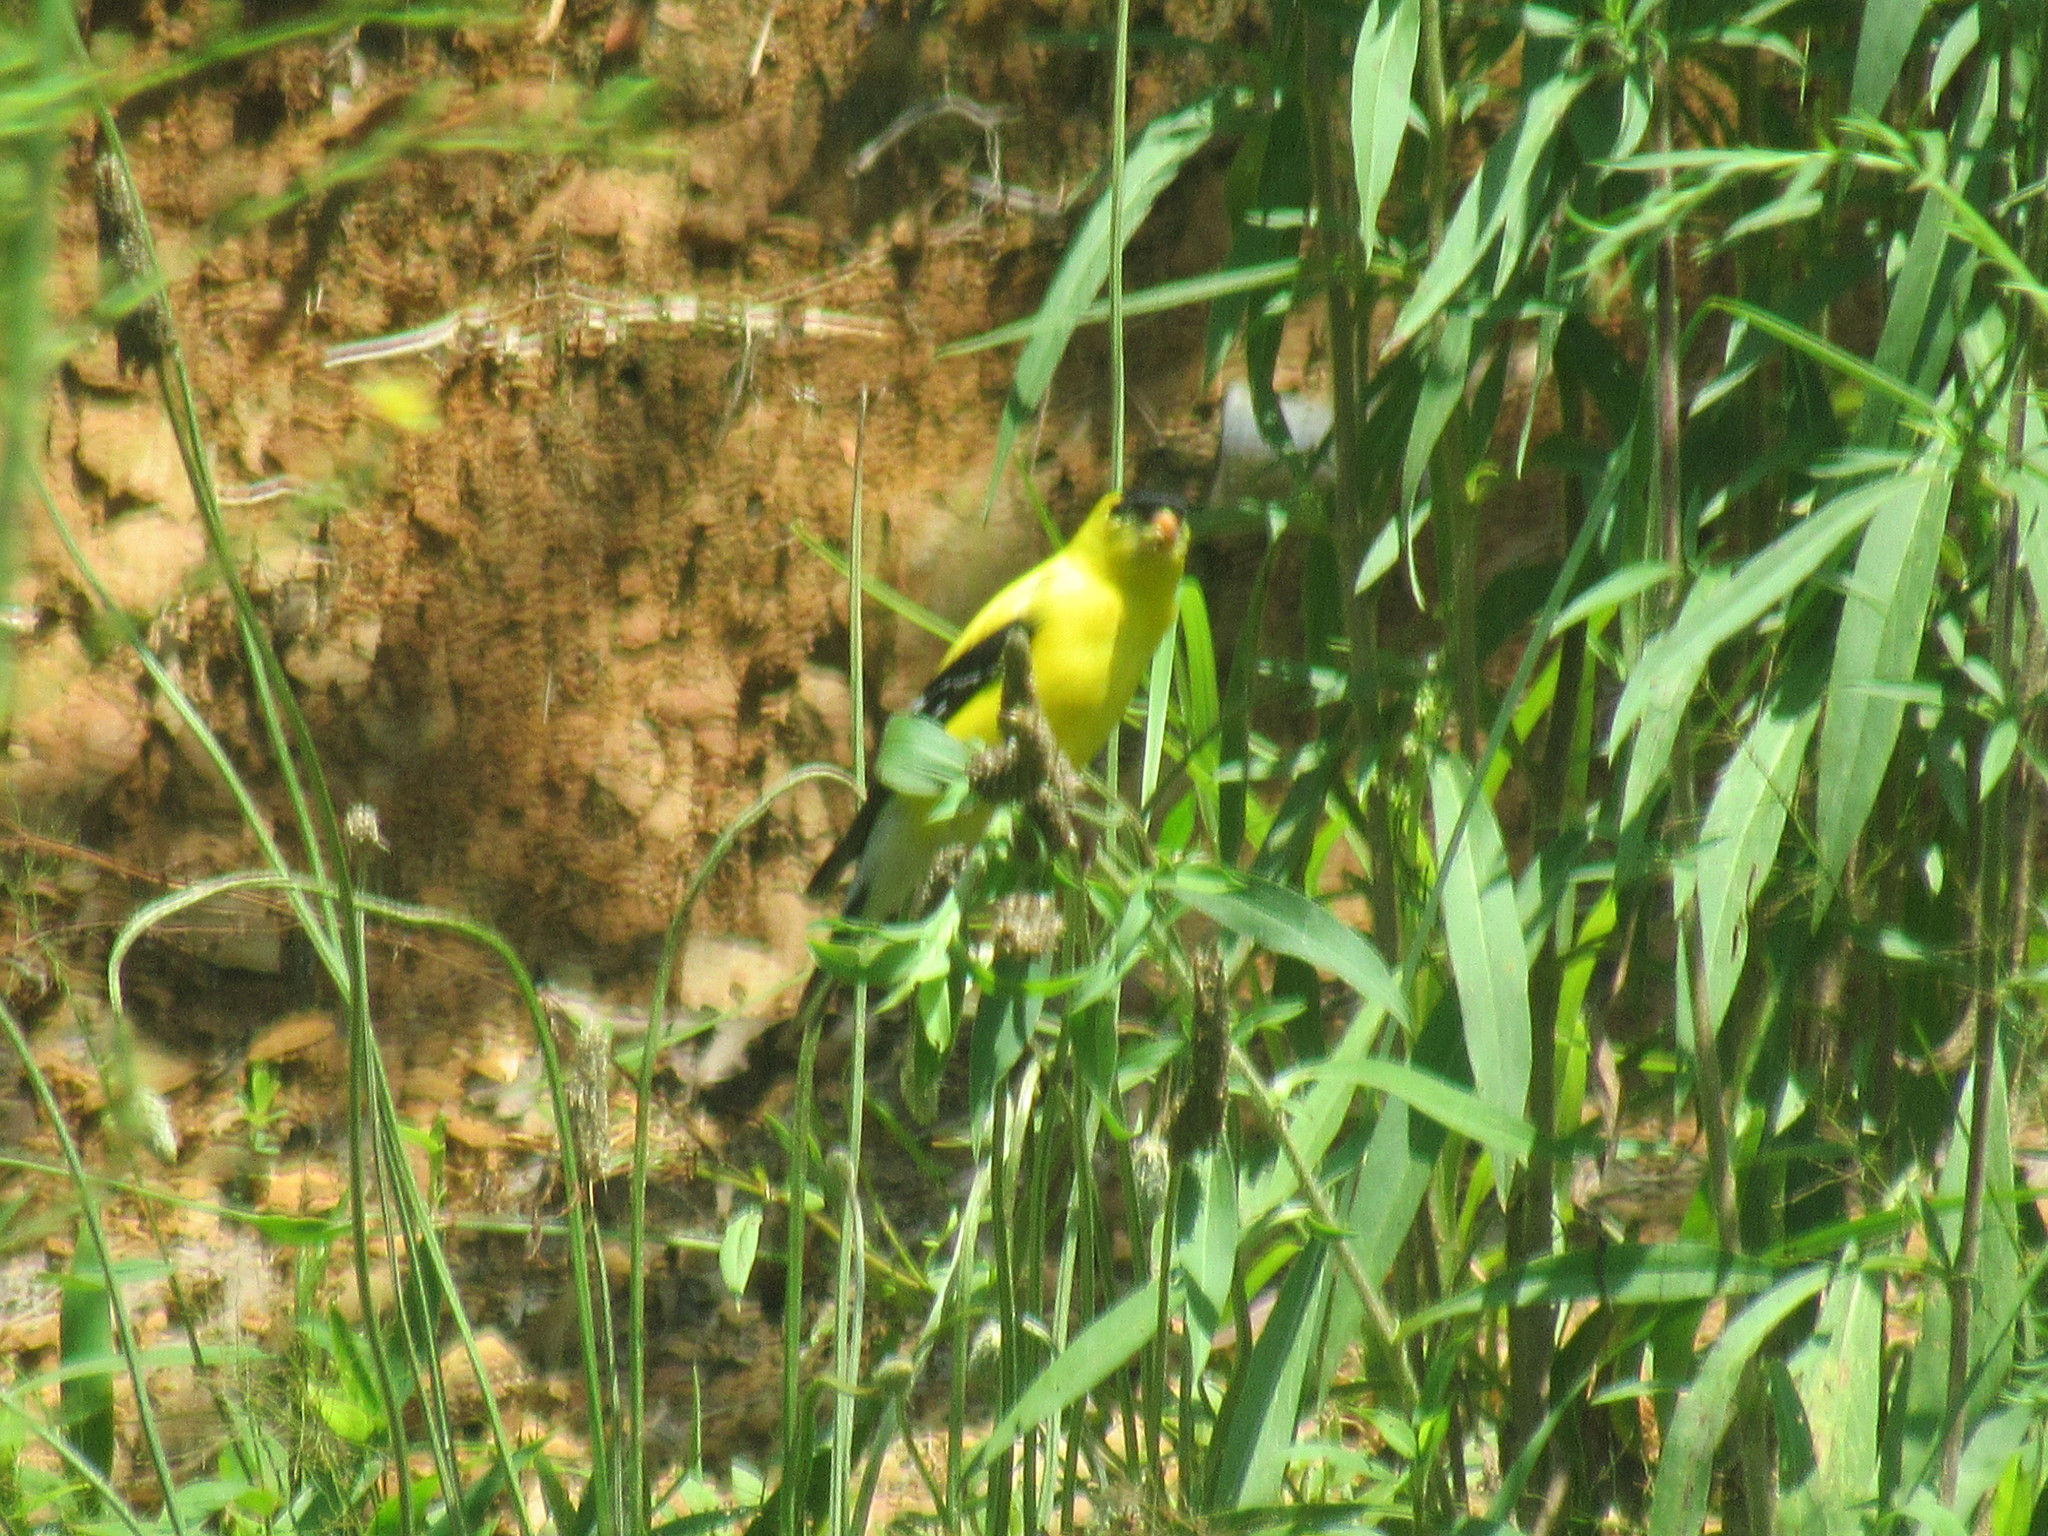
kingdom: Animalia
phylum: Chordata
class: Aves
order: Passeriformes
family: Fringillidae
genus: Spinus
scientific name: Spinus tristis
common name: American goldfinch
